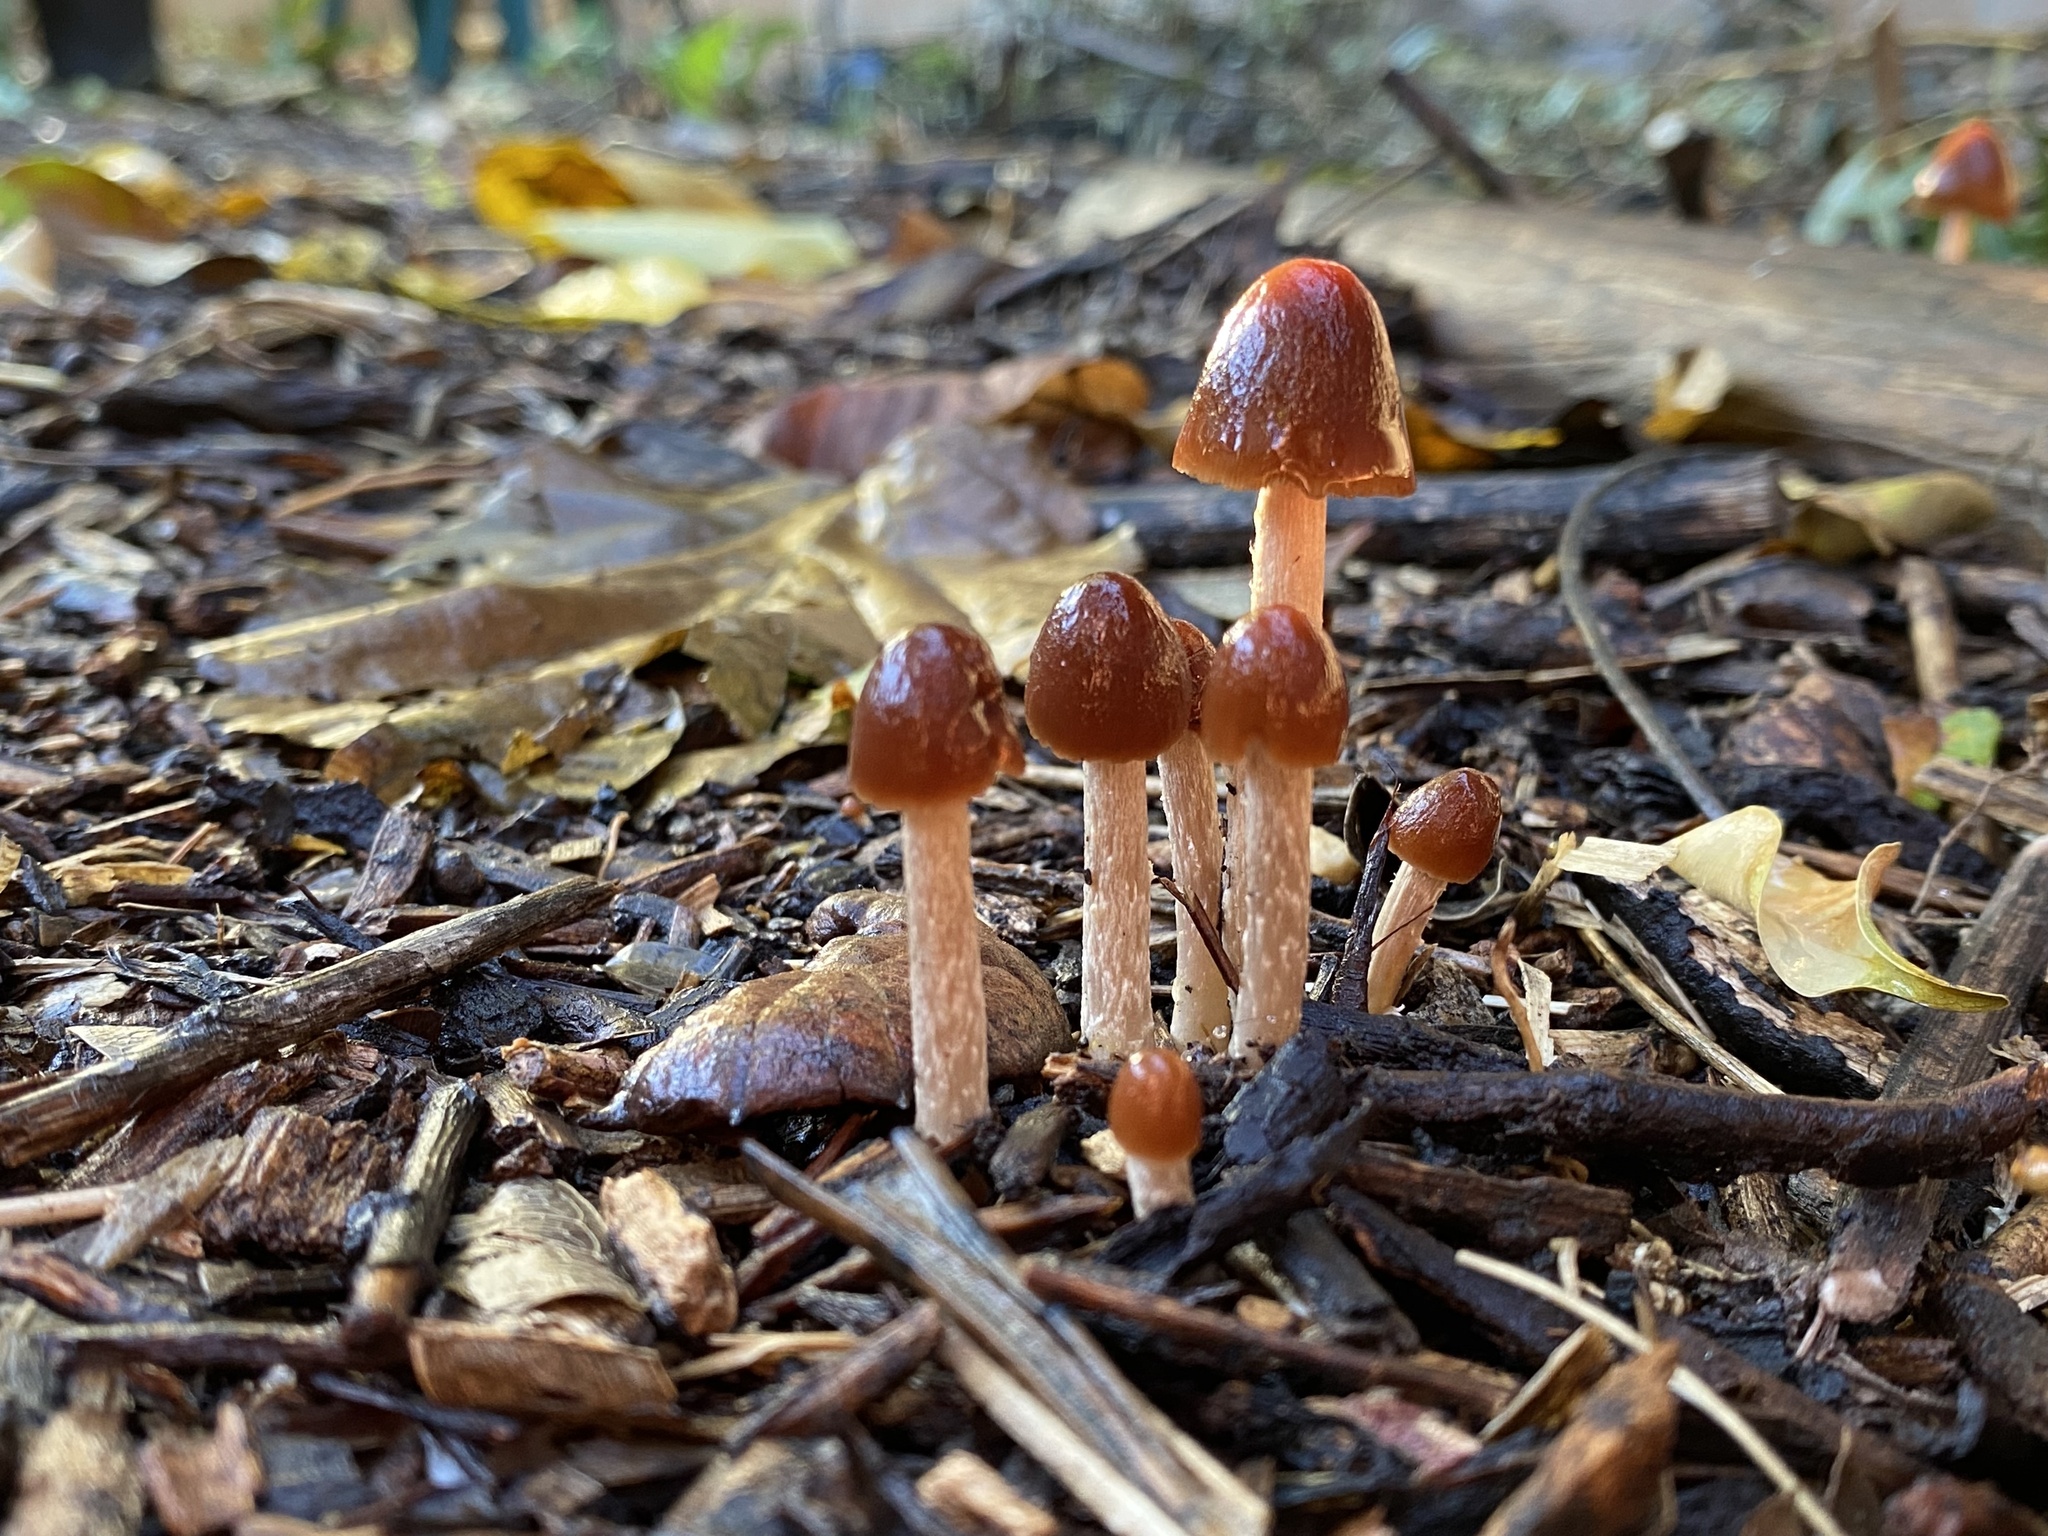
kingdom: Fungi
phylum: Basidiomycota
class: Agaricomycetes
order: Agaricales
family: Psathyrellaceae
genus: Parasola
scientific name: Parasola conopilea
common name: Conical brittlestem
